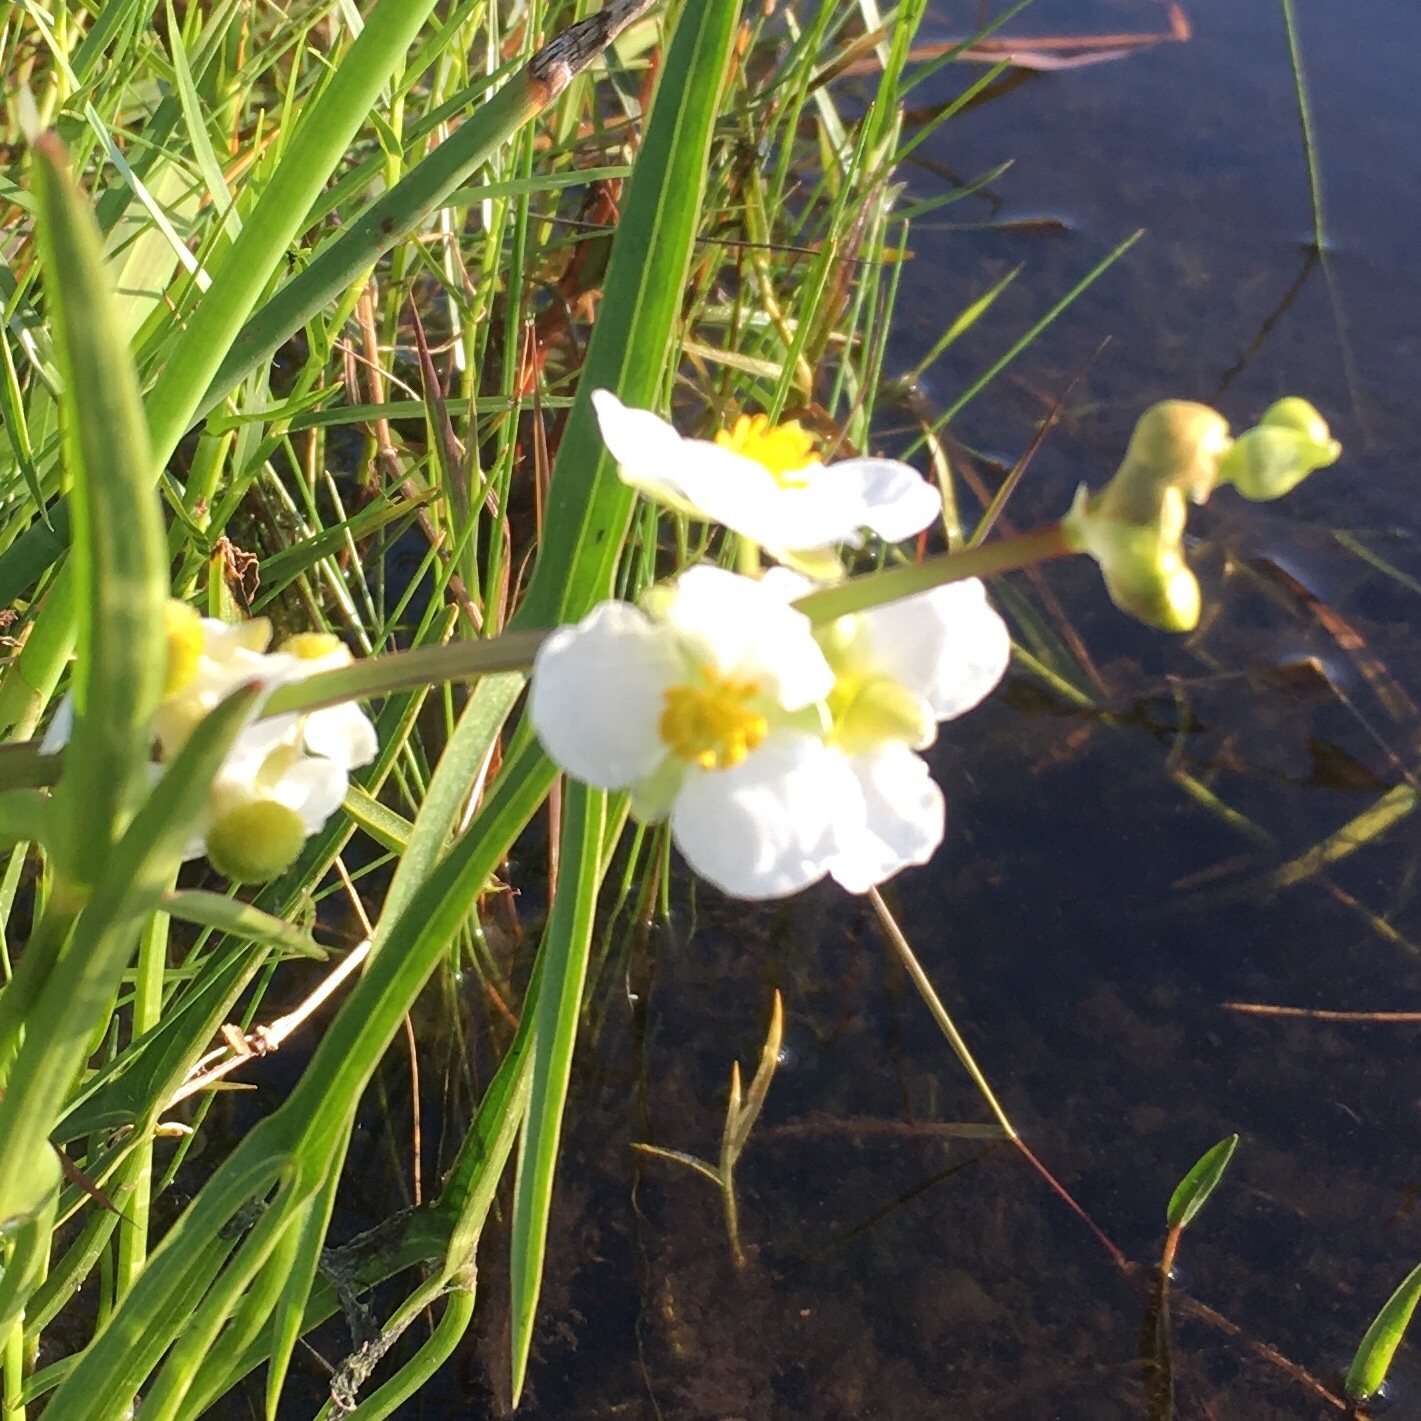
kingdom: Plantae
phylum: Tracheophyta
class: Liliopsida
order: Alismatales
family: Alismataceae
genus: Sagittaria
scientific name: Sagittaria latifolia
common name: Duck-potato
